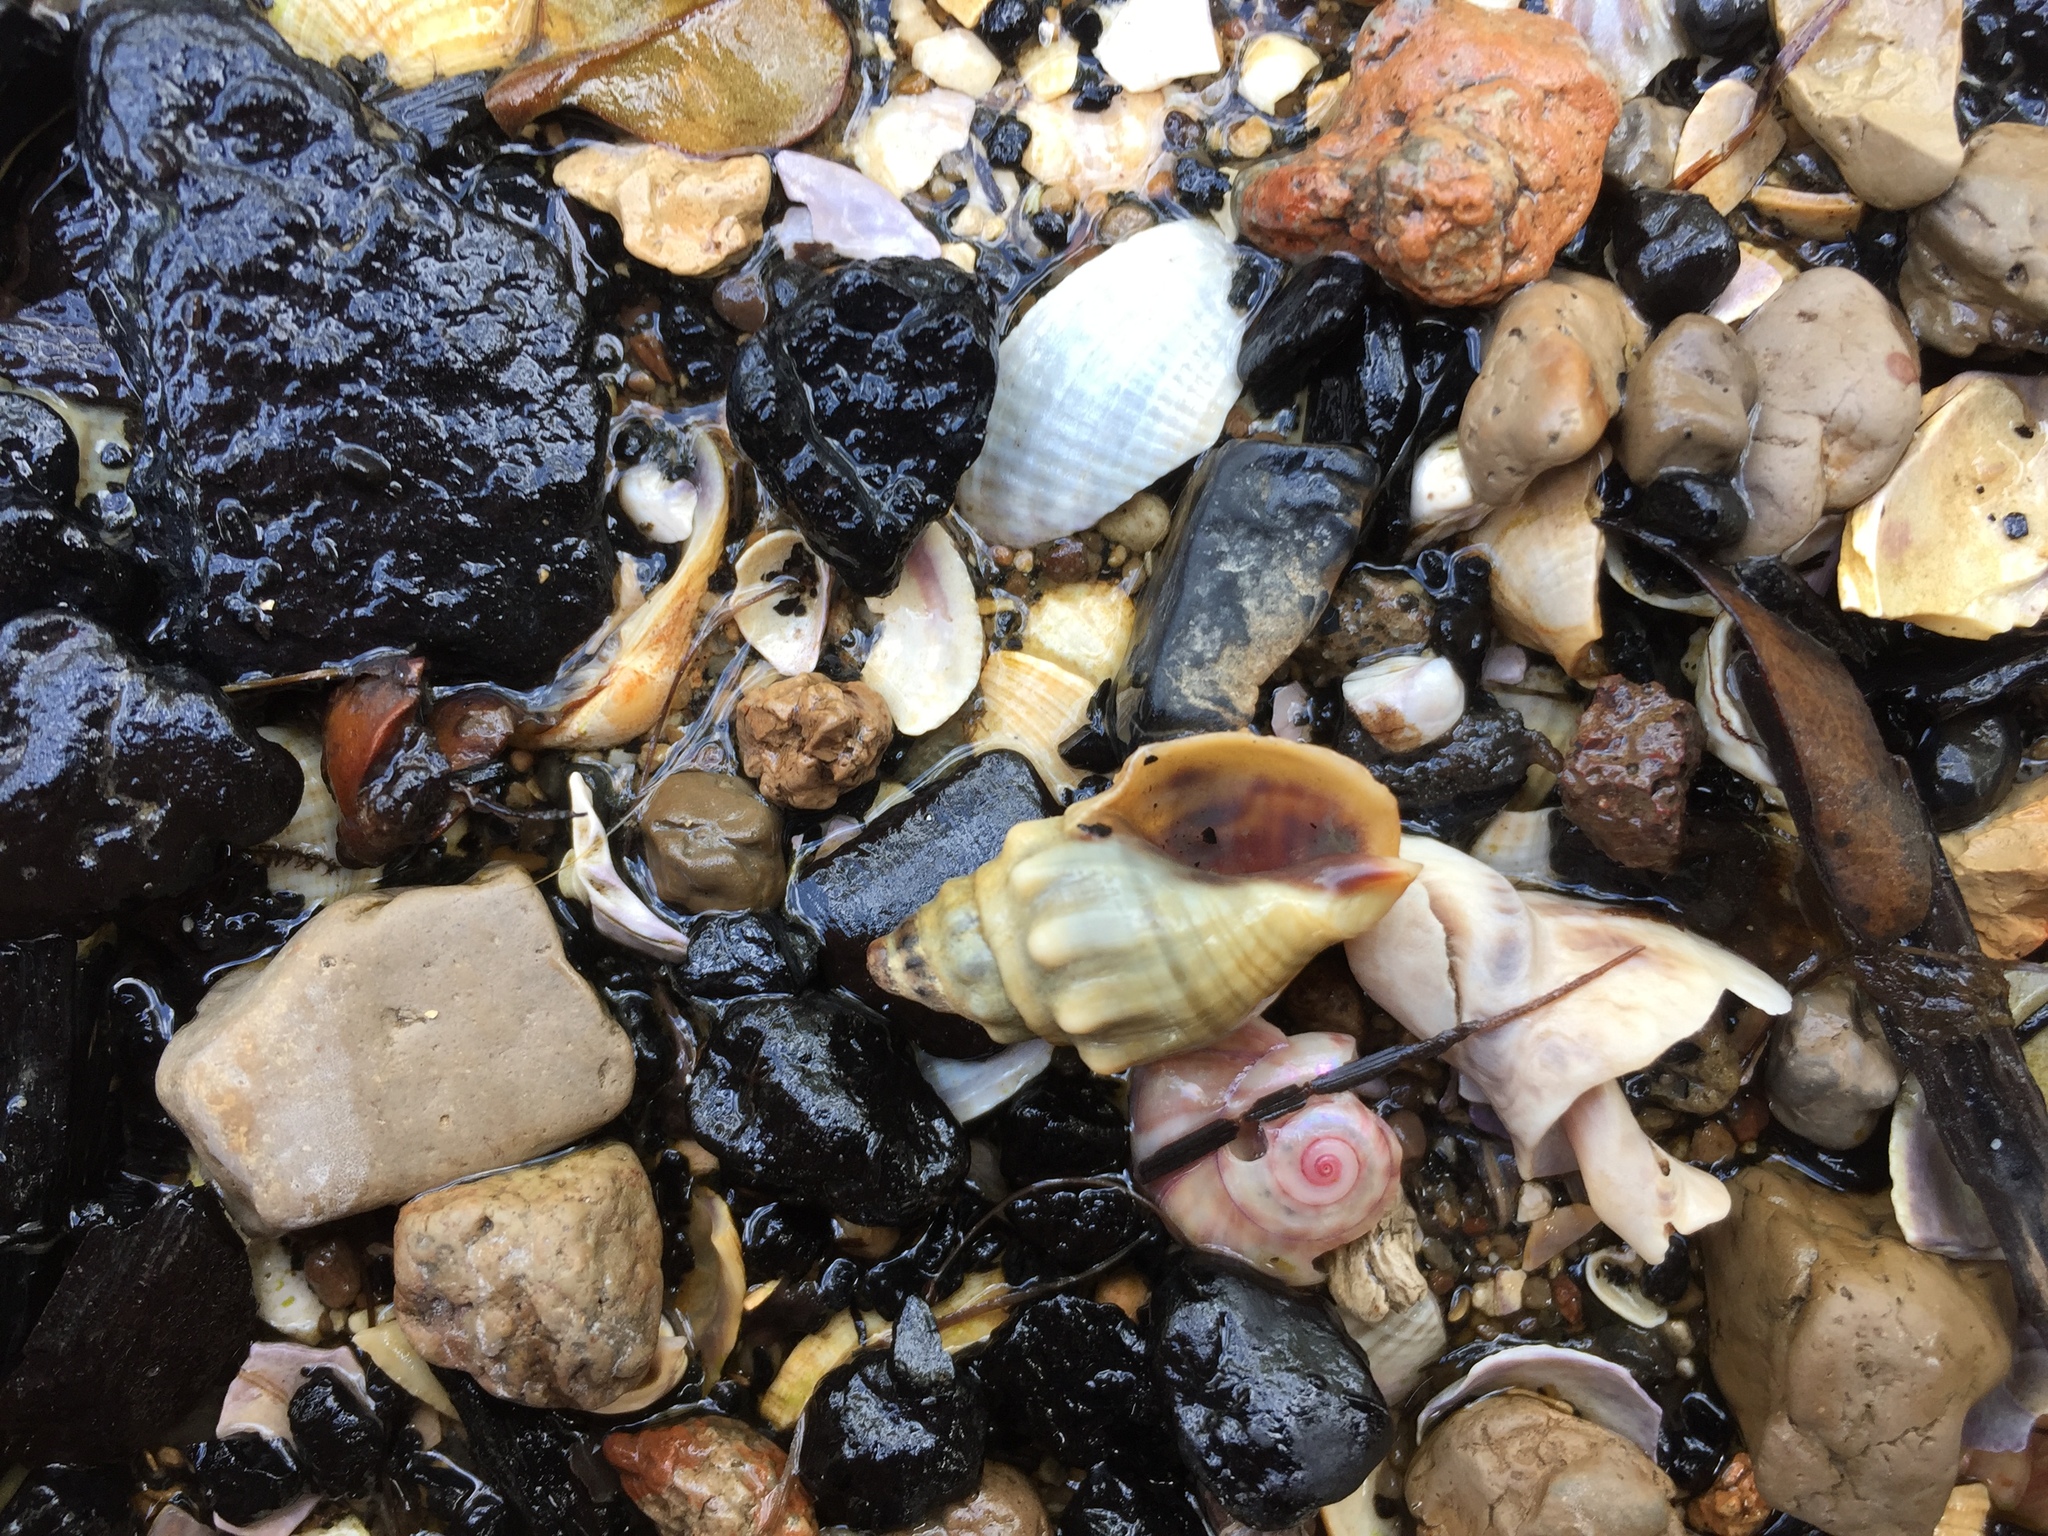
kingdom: Animalia
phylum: Mollusca
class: Gastropoda
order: Neogastropoda
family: Cominellidae
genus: Cominella
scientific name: Cominella glandiformis
